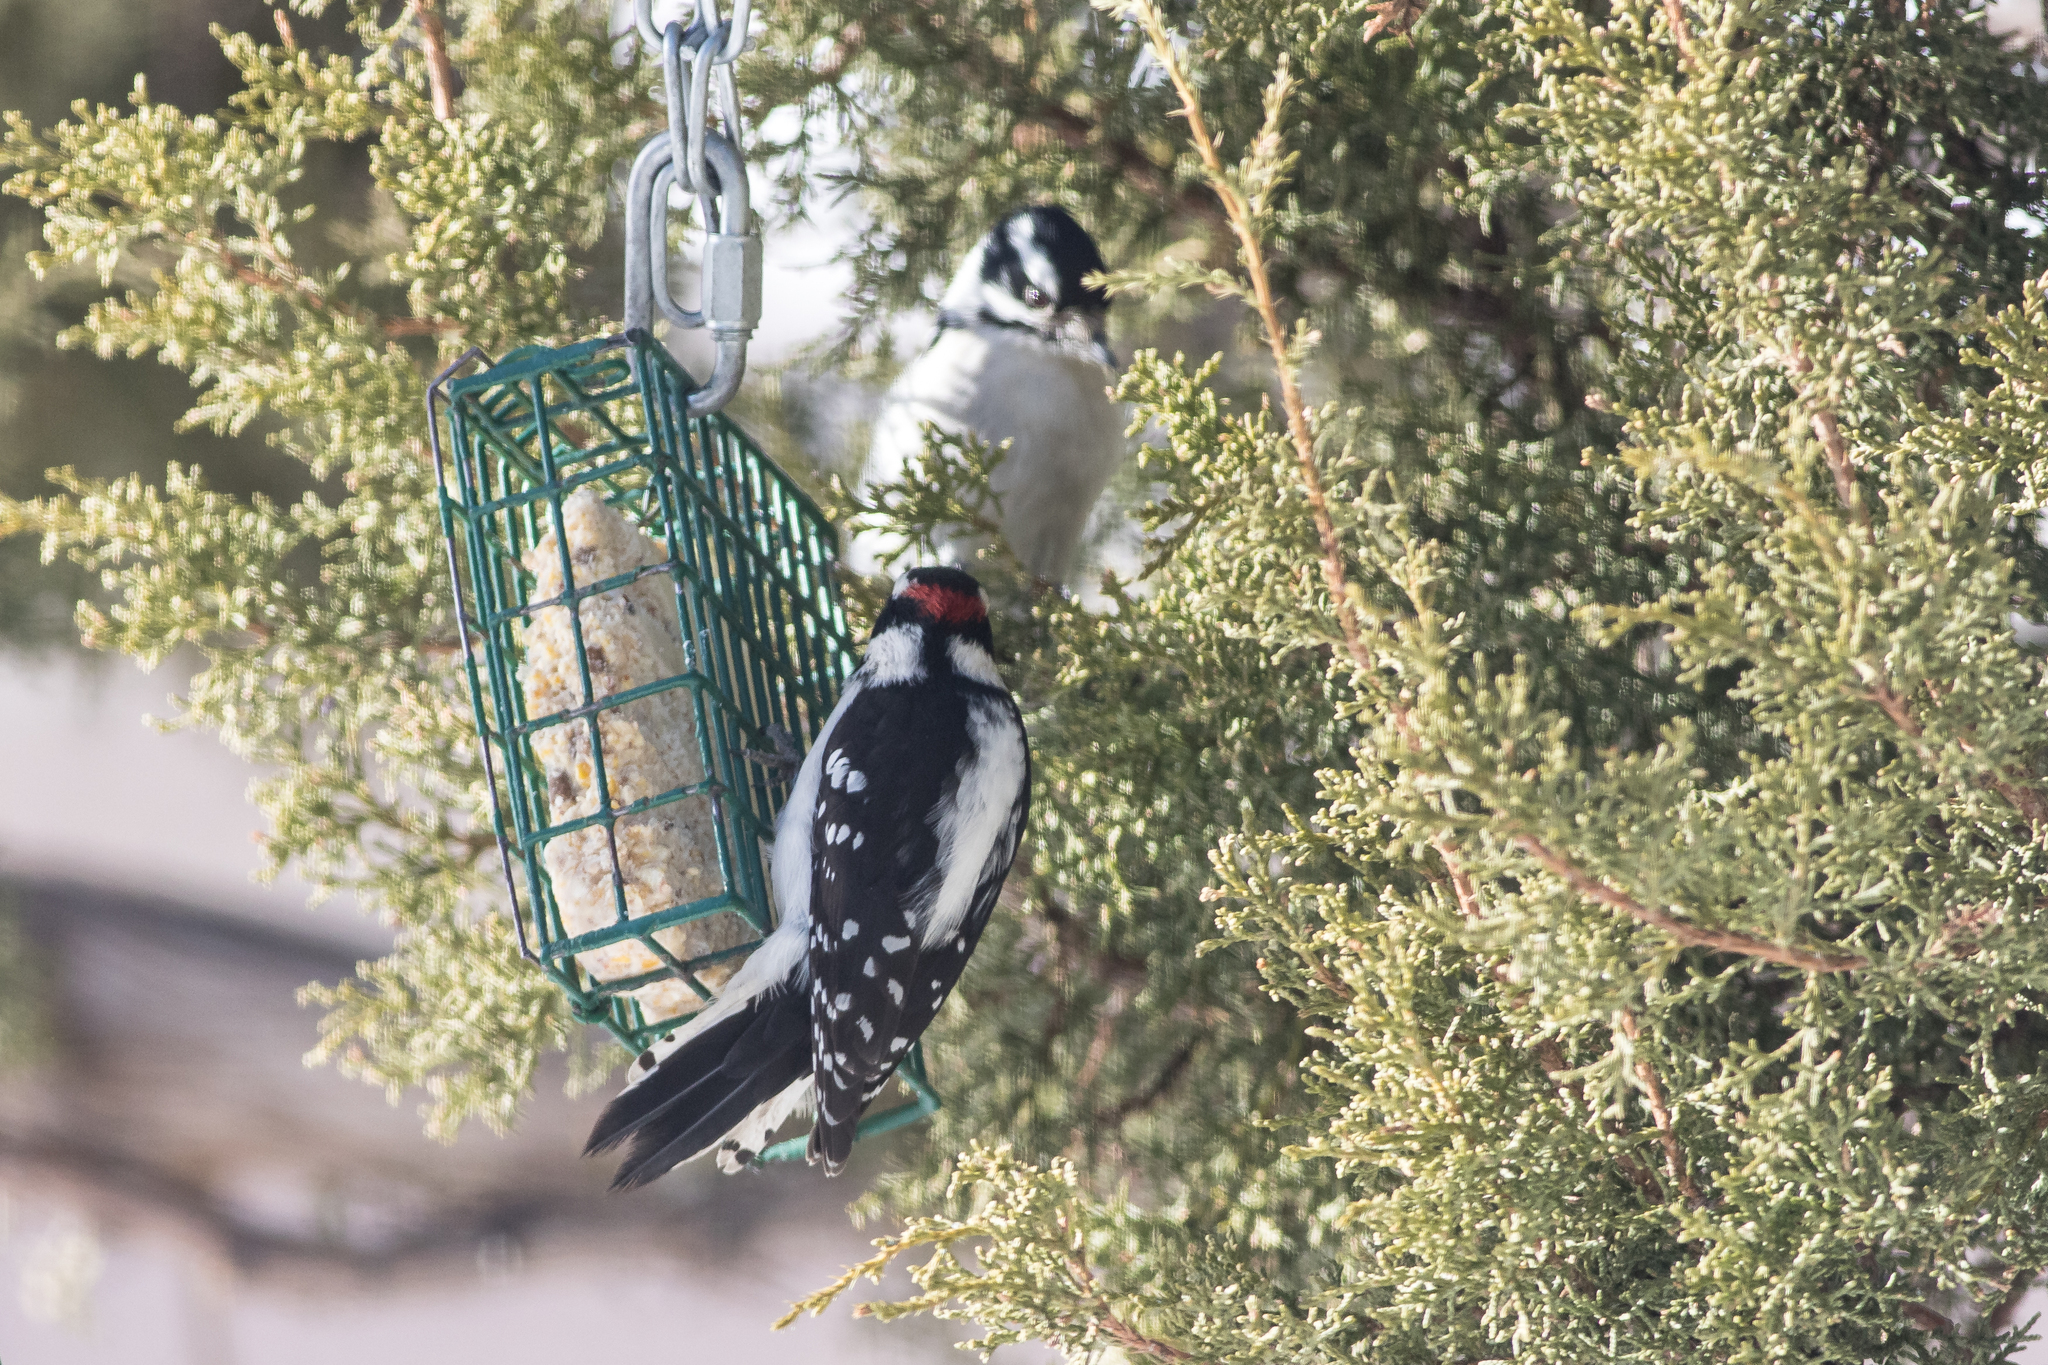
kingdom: Animalia
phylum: Chordata
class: Aves
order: Piciformes
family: Picidae
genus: Dryobates
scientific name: Dryobates pubescens
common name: Downy woodpecker
